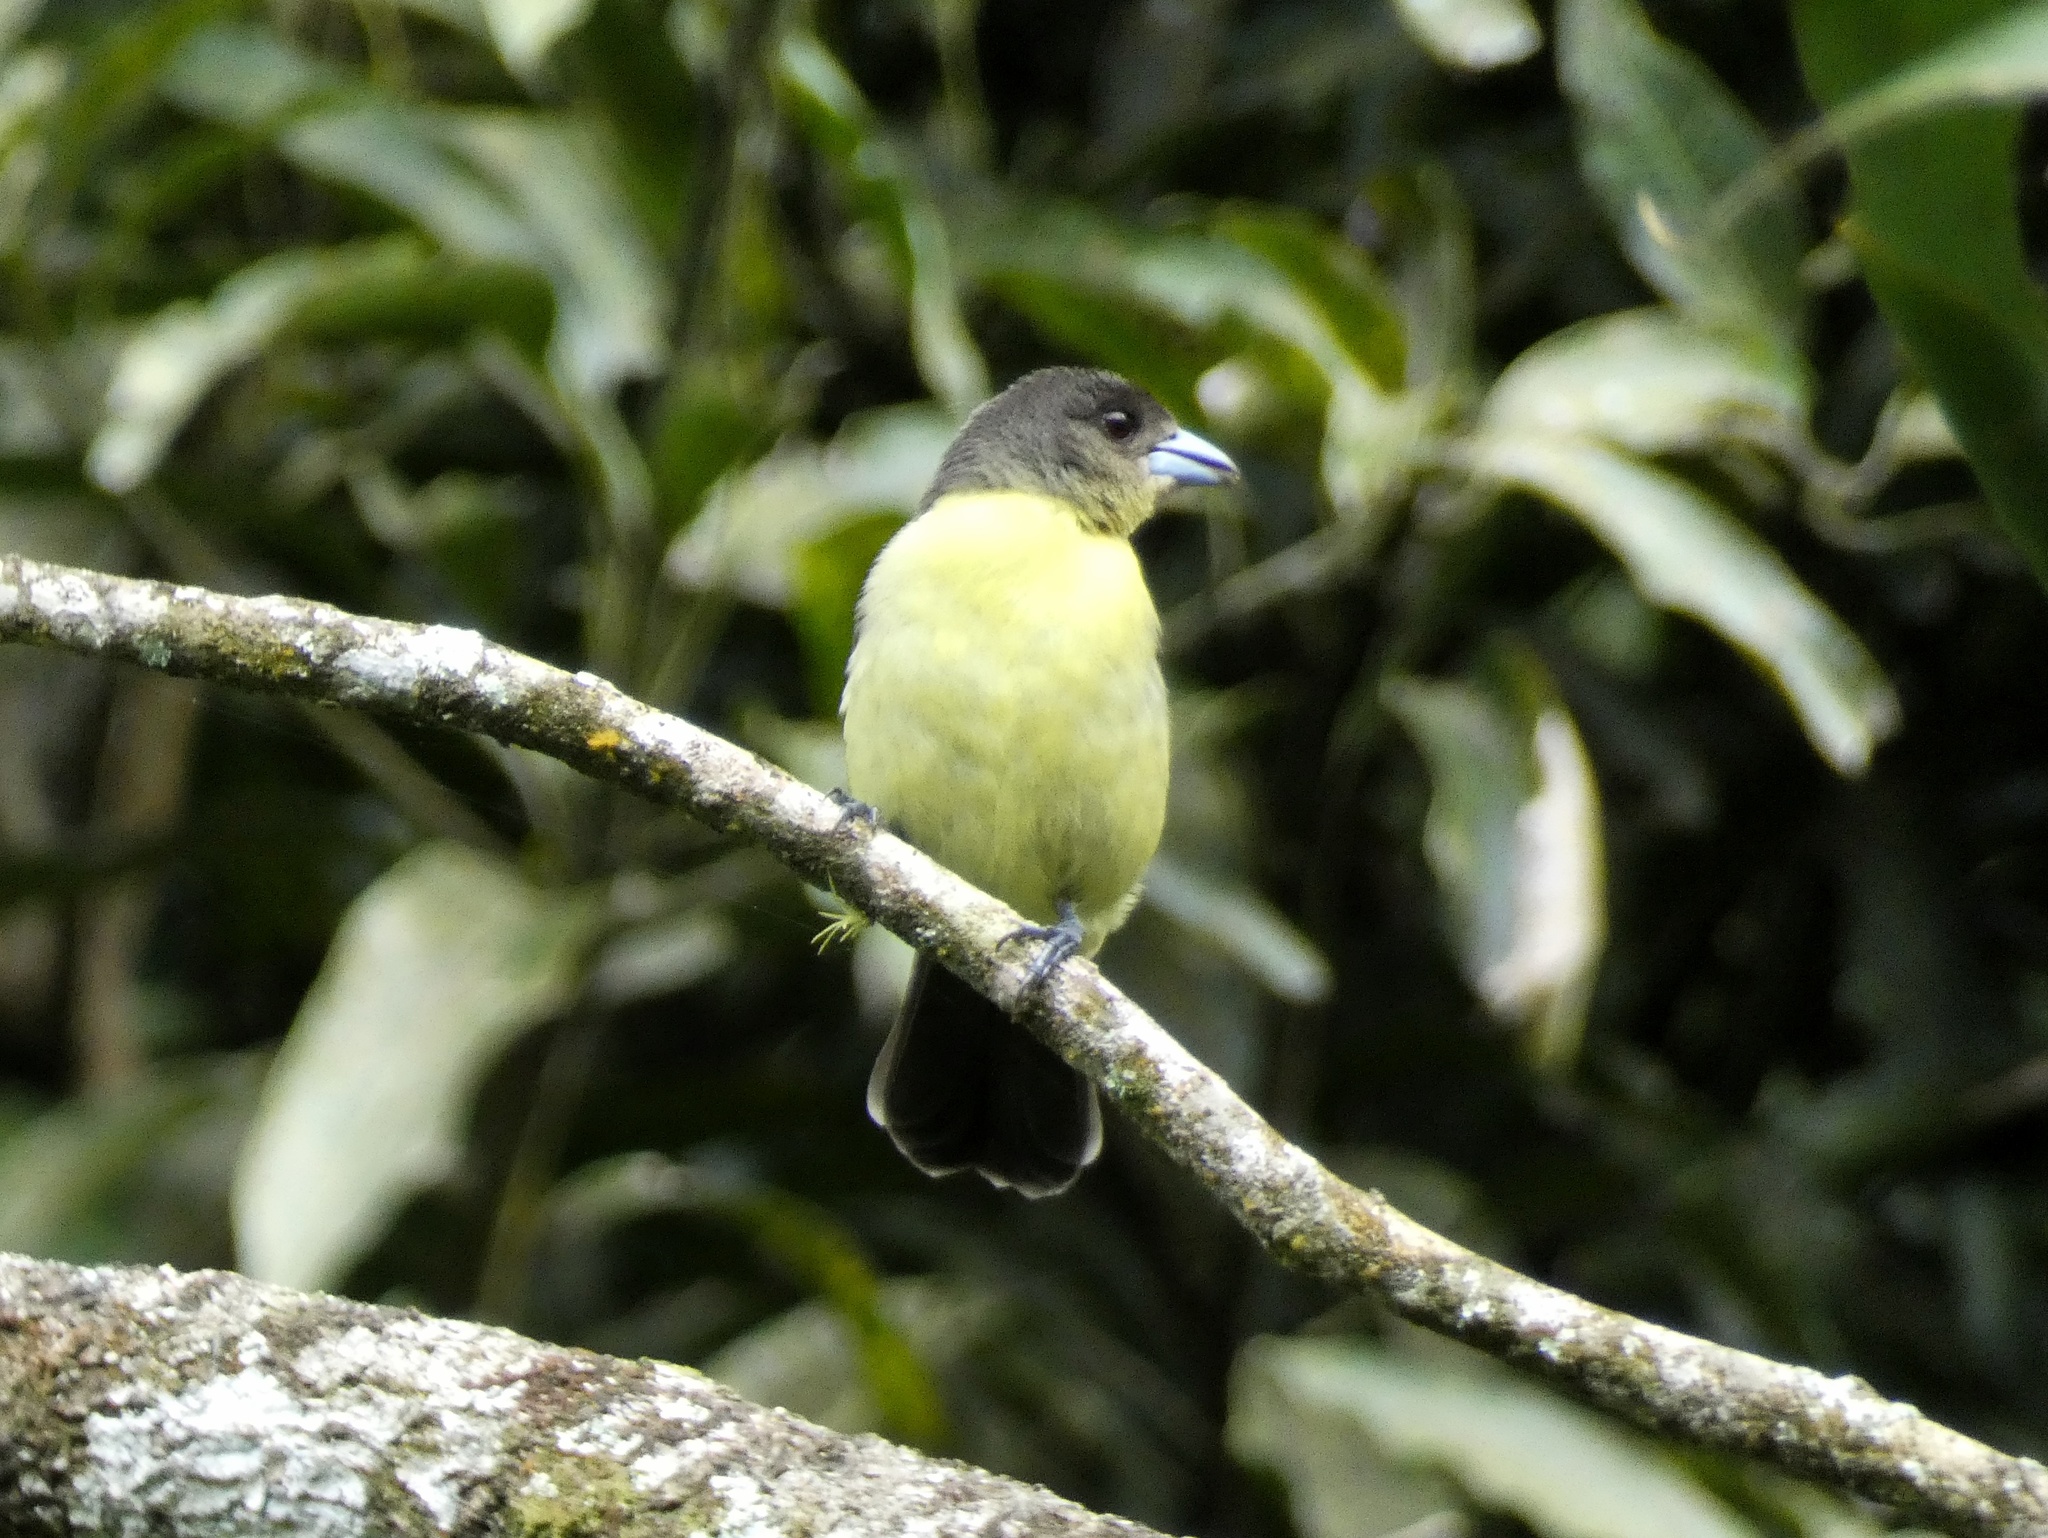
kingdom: Animalia
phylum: Chordata
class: Aves
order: Passeriformes
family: Thraupidae
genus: Ramphocelus
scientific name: Ramphocelus icteronotus
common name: Lemon-rumped tanager
